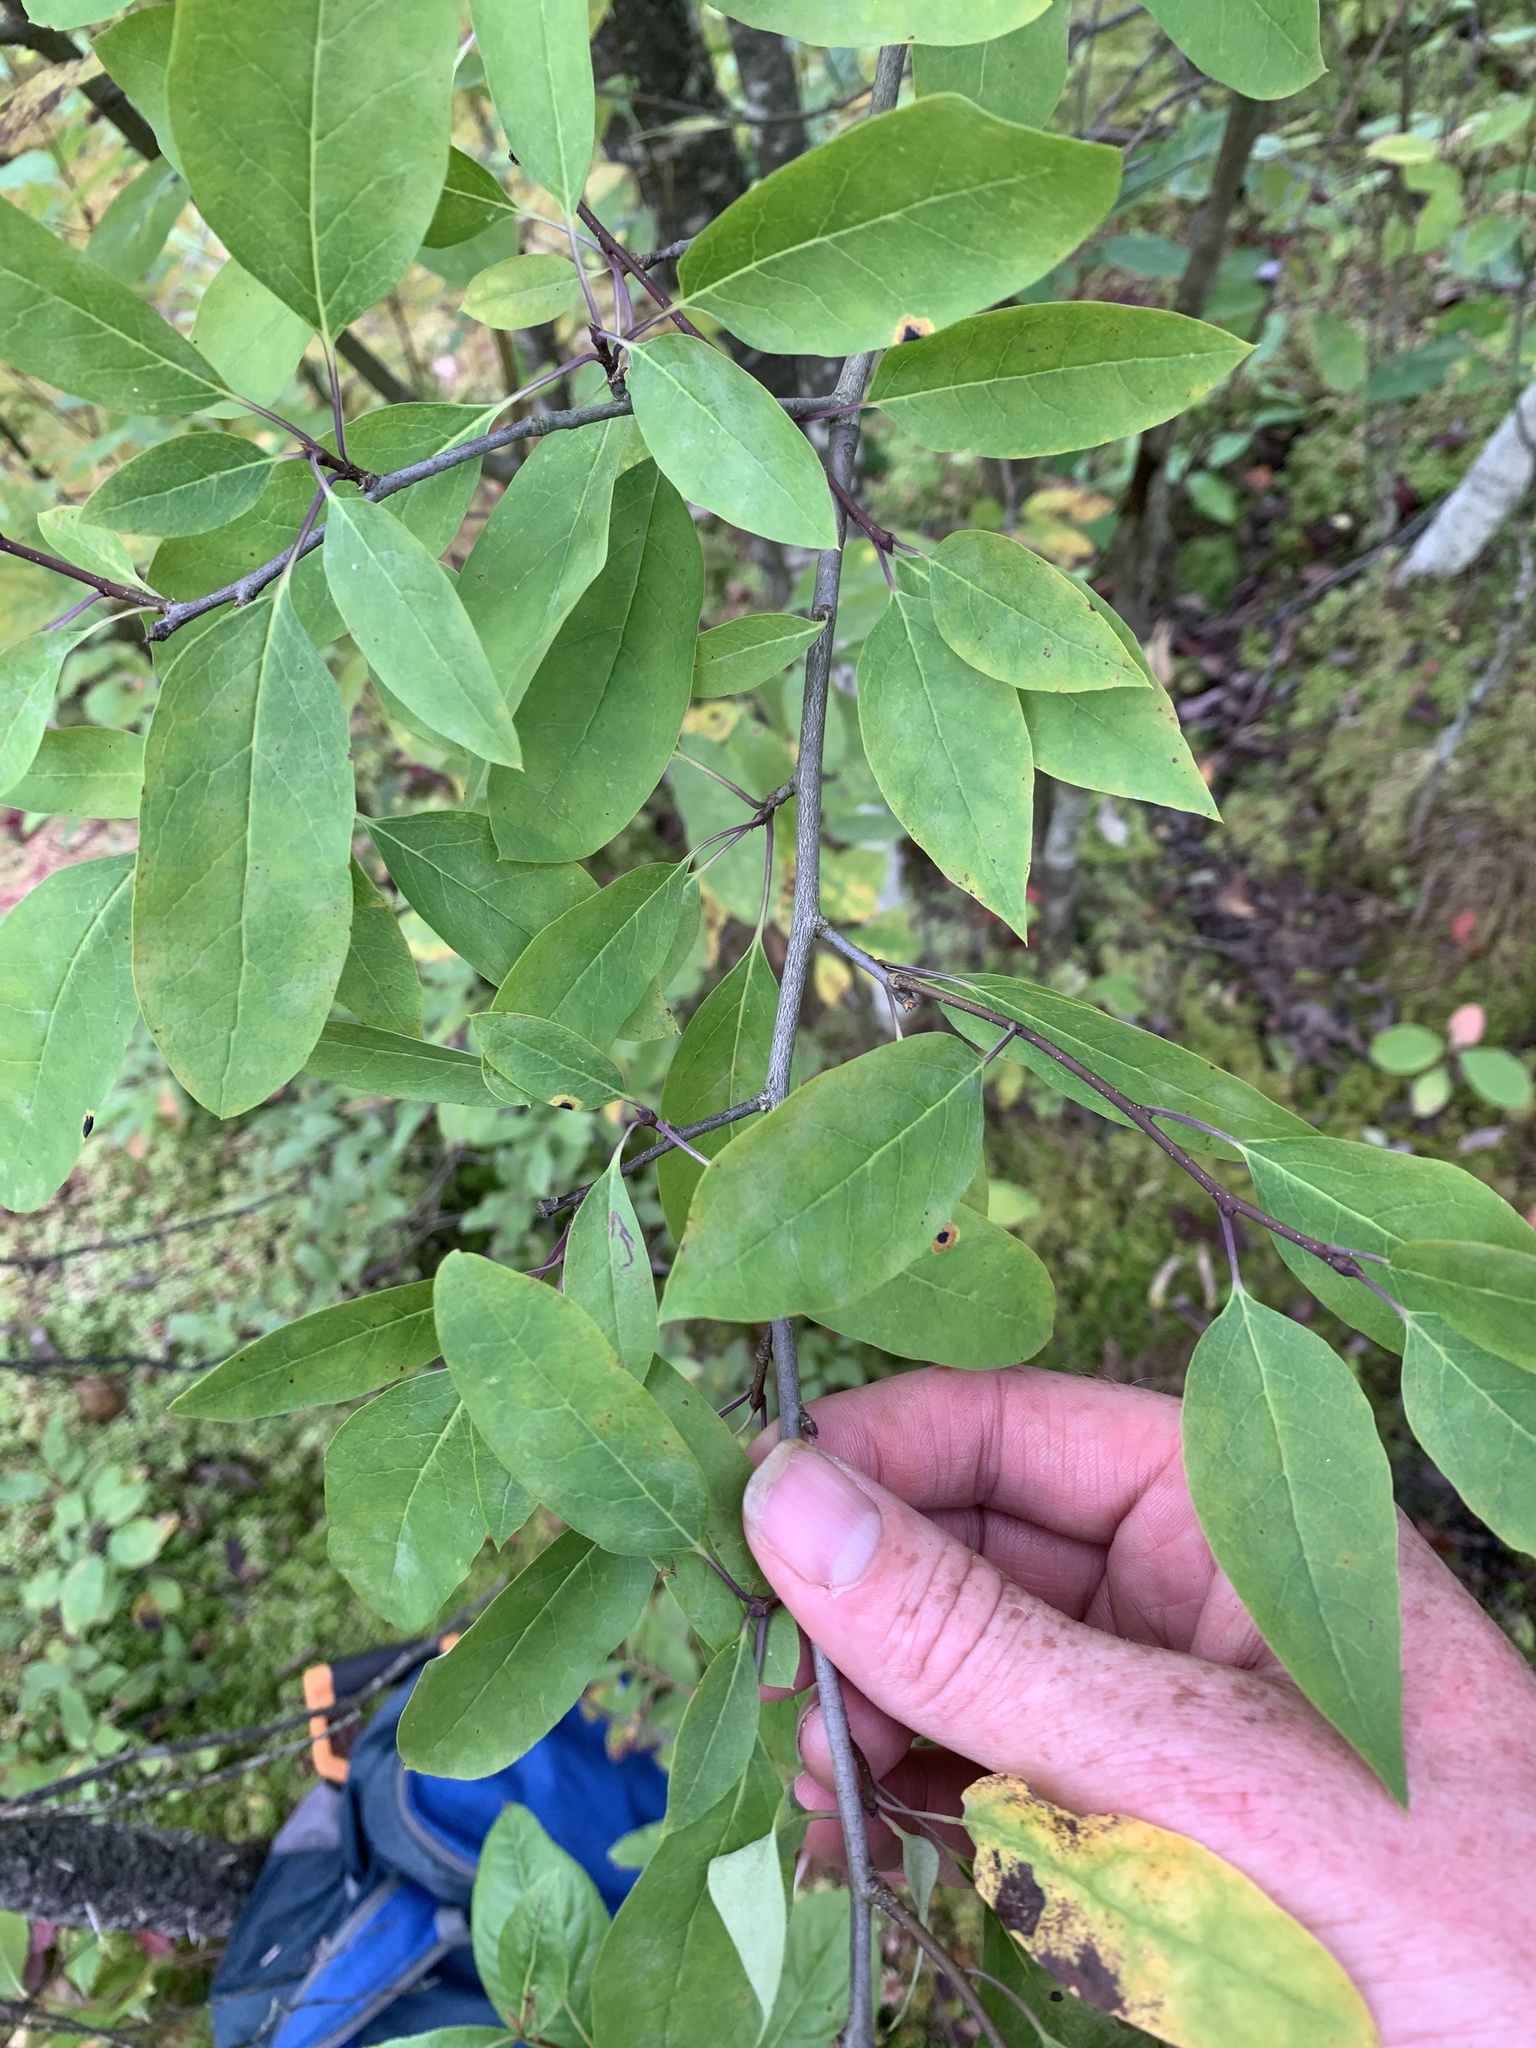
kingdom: Plantae
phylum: Tracheophyta
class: Magnoliopsida
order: Aquifoliales
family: Aquifoliaceae
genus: Ilex
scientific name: Ilex mucronata
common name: Catberry
